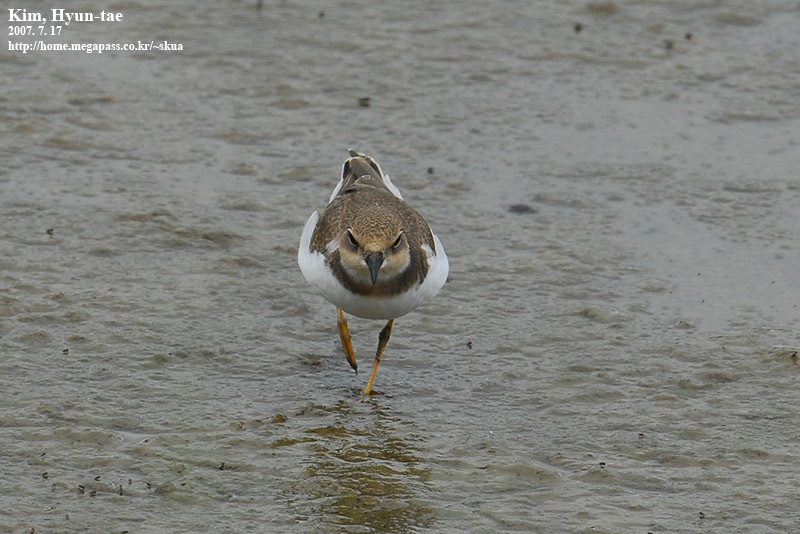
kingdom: Animalia
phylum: Chordata
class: Aves
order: Charadriiformes
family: Charadriidae
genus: Charadrius
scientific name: Charadrius dubius
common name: Little ringed plover
